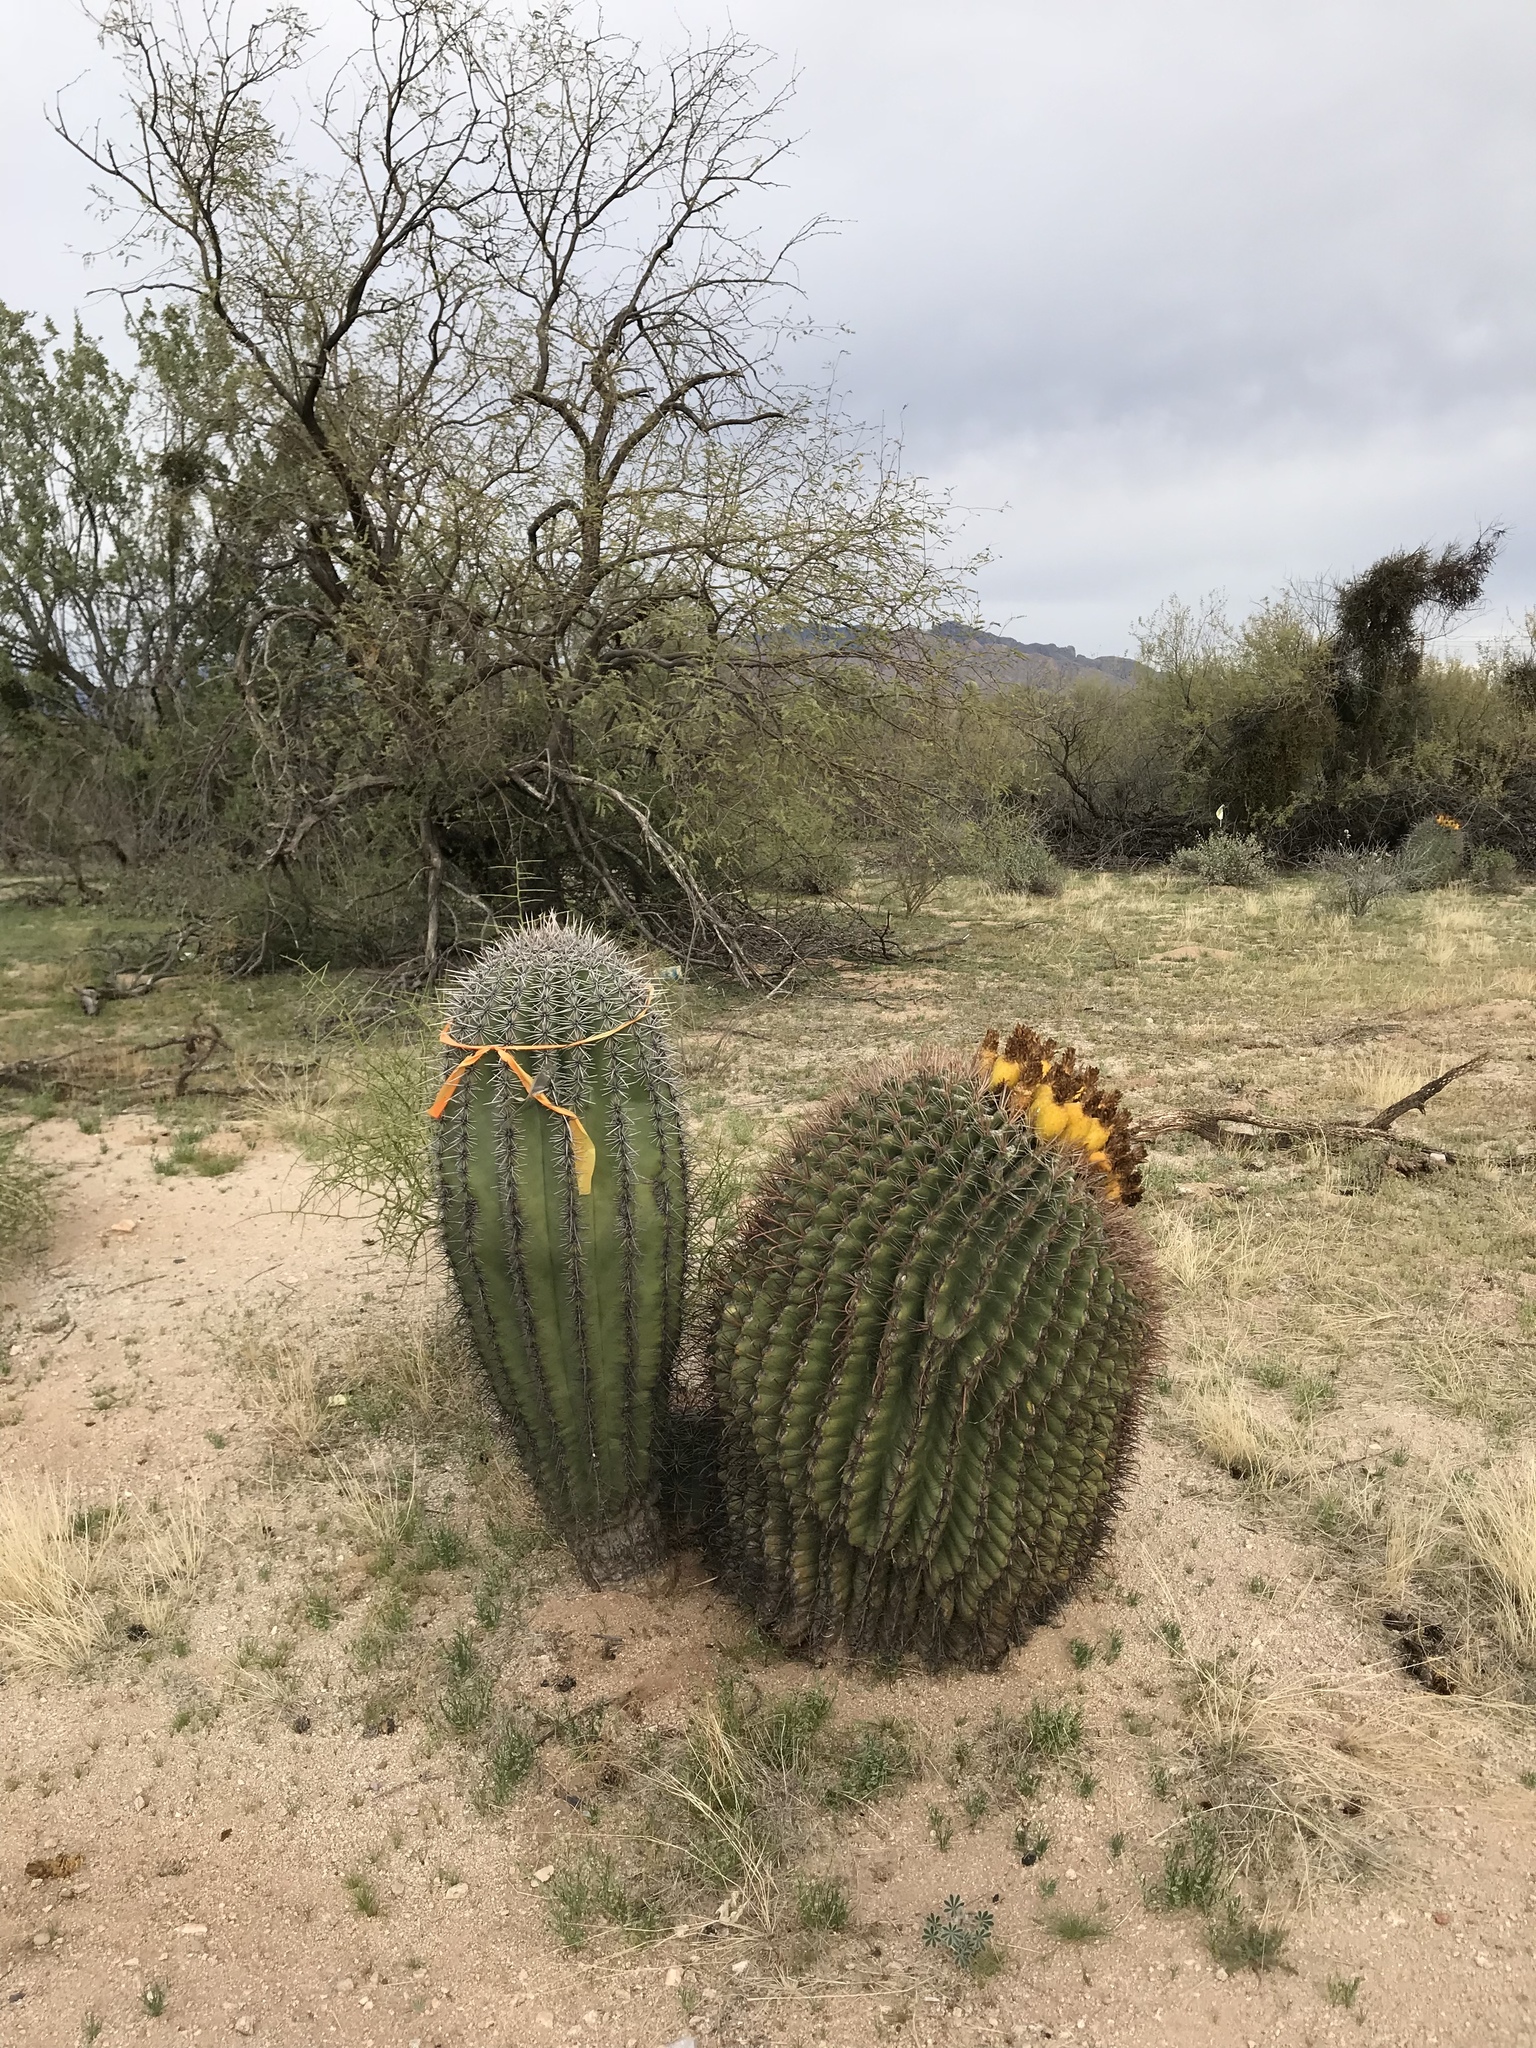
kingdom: Plantae
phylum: Tracheophyta
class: Magnoliopsida
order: Caryophyllales
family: Cactaceae
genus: Carnegiea
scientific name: Carnegiea gigantea
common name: Saguaro
